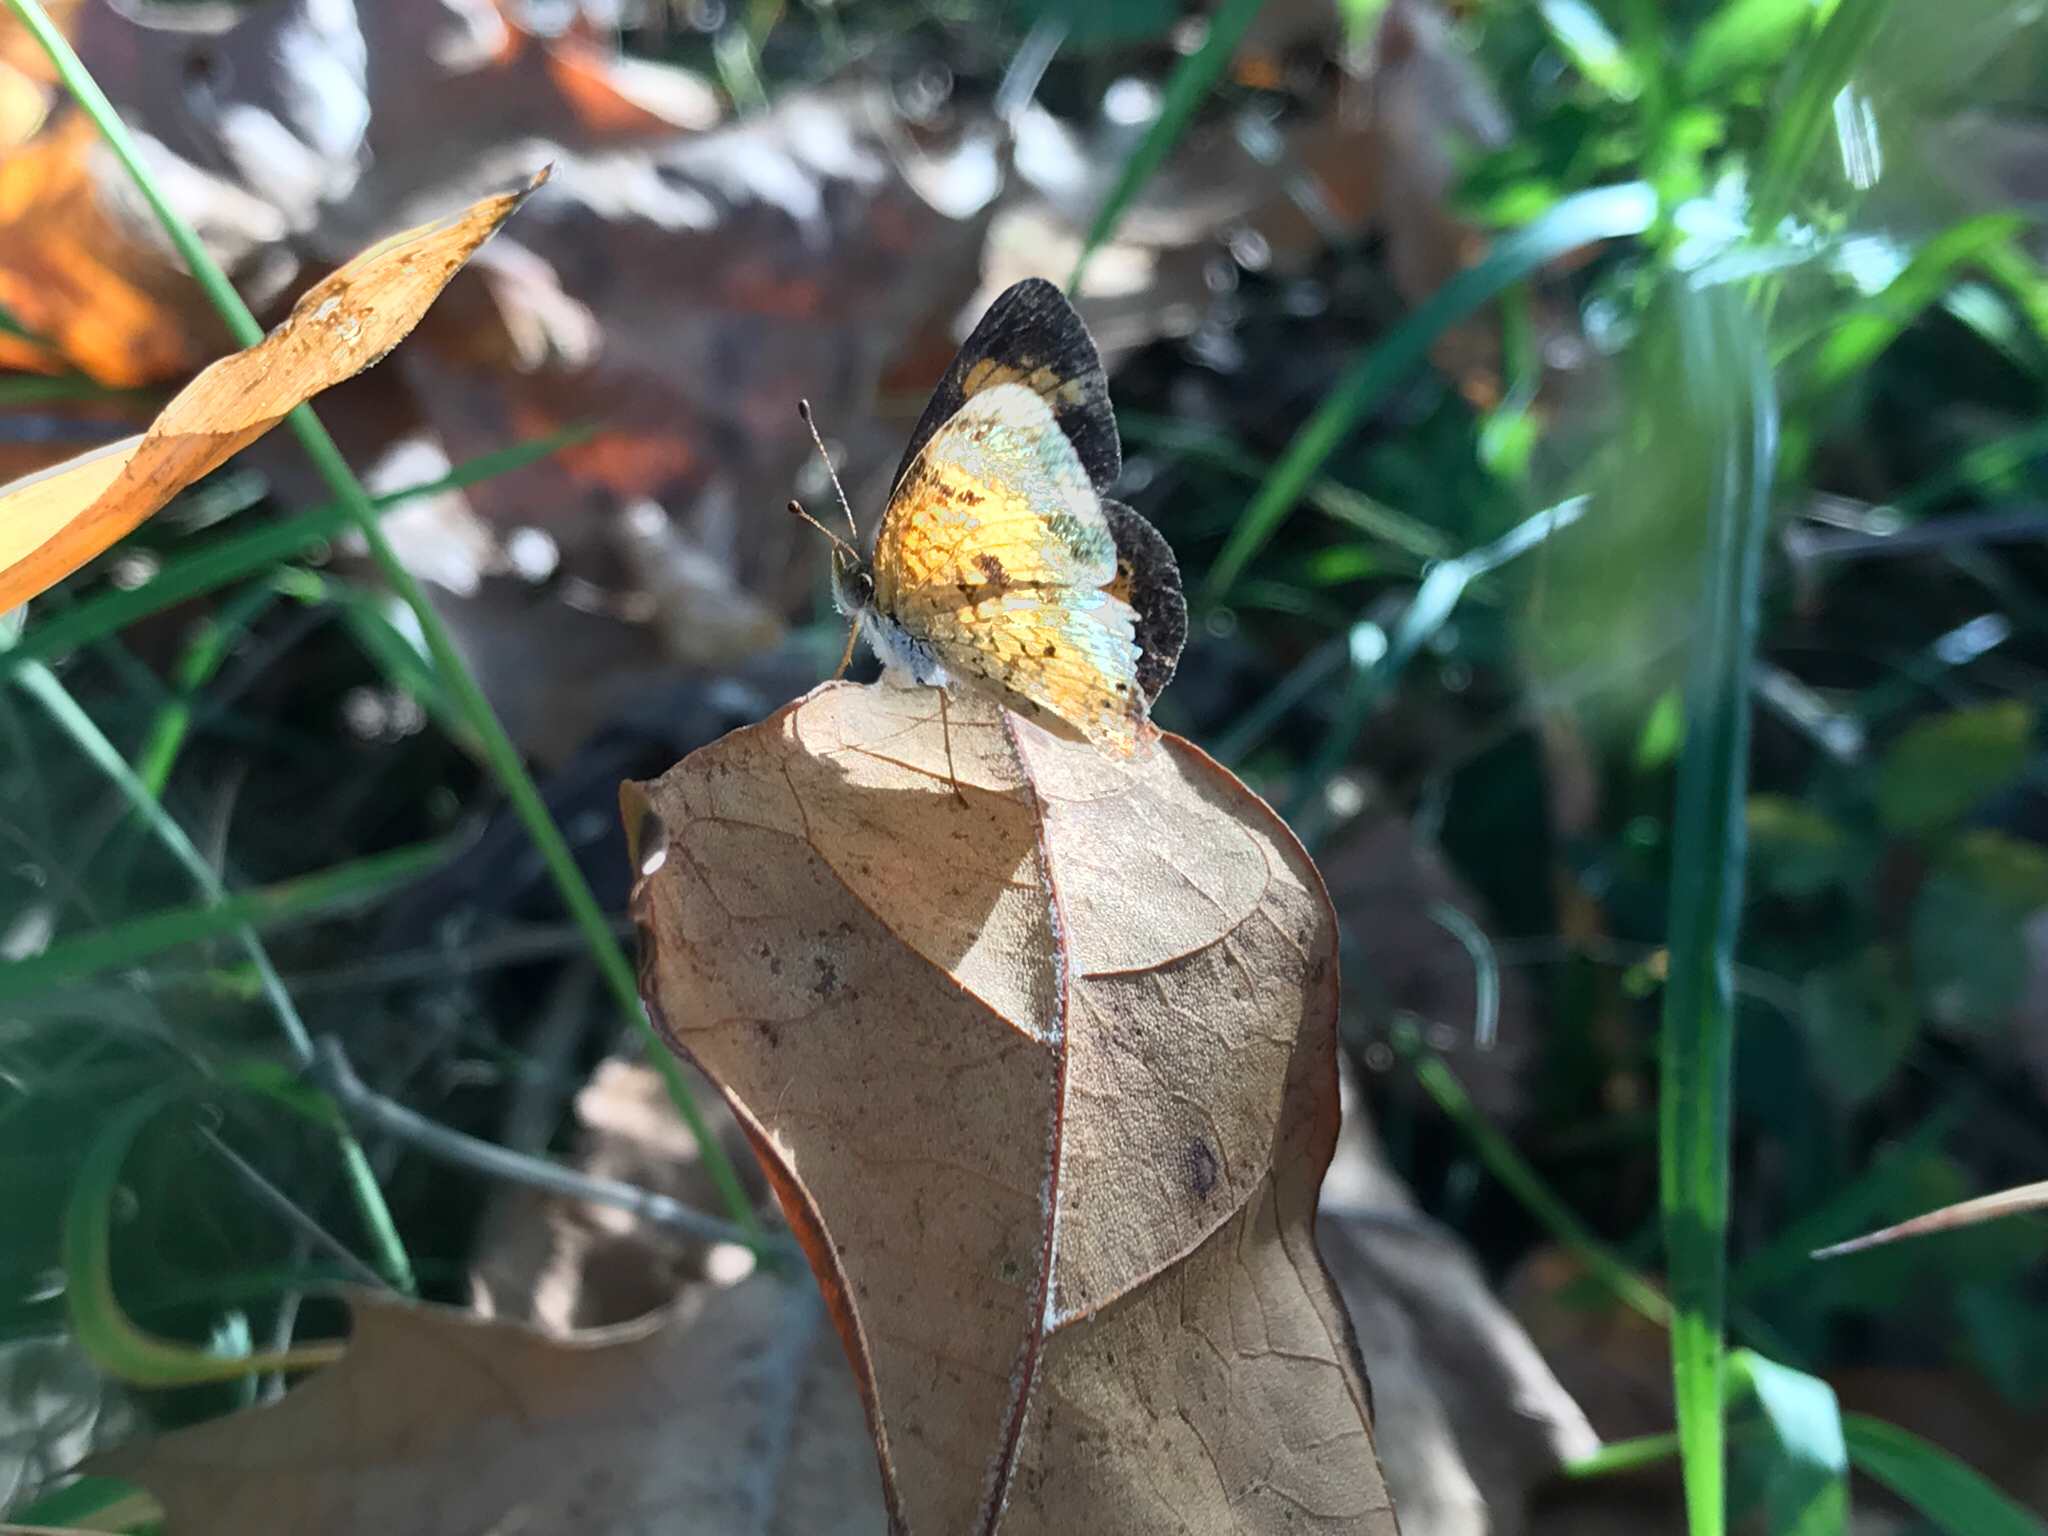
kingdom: Animalia
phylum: Arthropoda
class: Insecta
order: Lepidoptera
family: Nymphalidae
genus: Phyciodes
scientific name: Phyciodes tharos
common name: Pearl crescent
